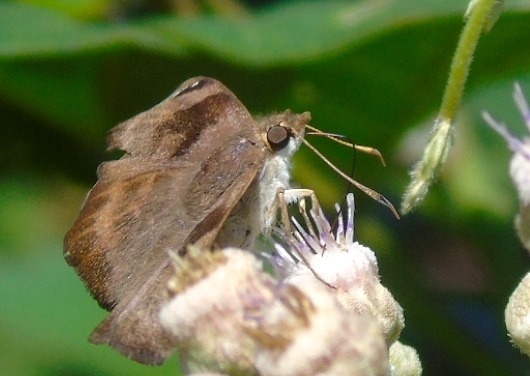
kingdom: Animalia
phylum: Arthropoda
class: Insecta
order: Lepidoptera
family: Hesperiidae
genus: Arteurotia
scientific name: Arteurotia tractipennis
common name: Starred skipper
